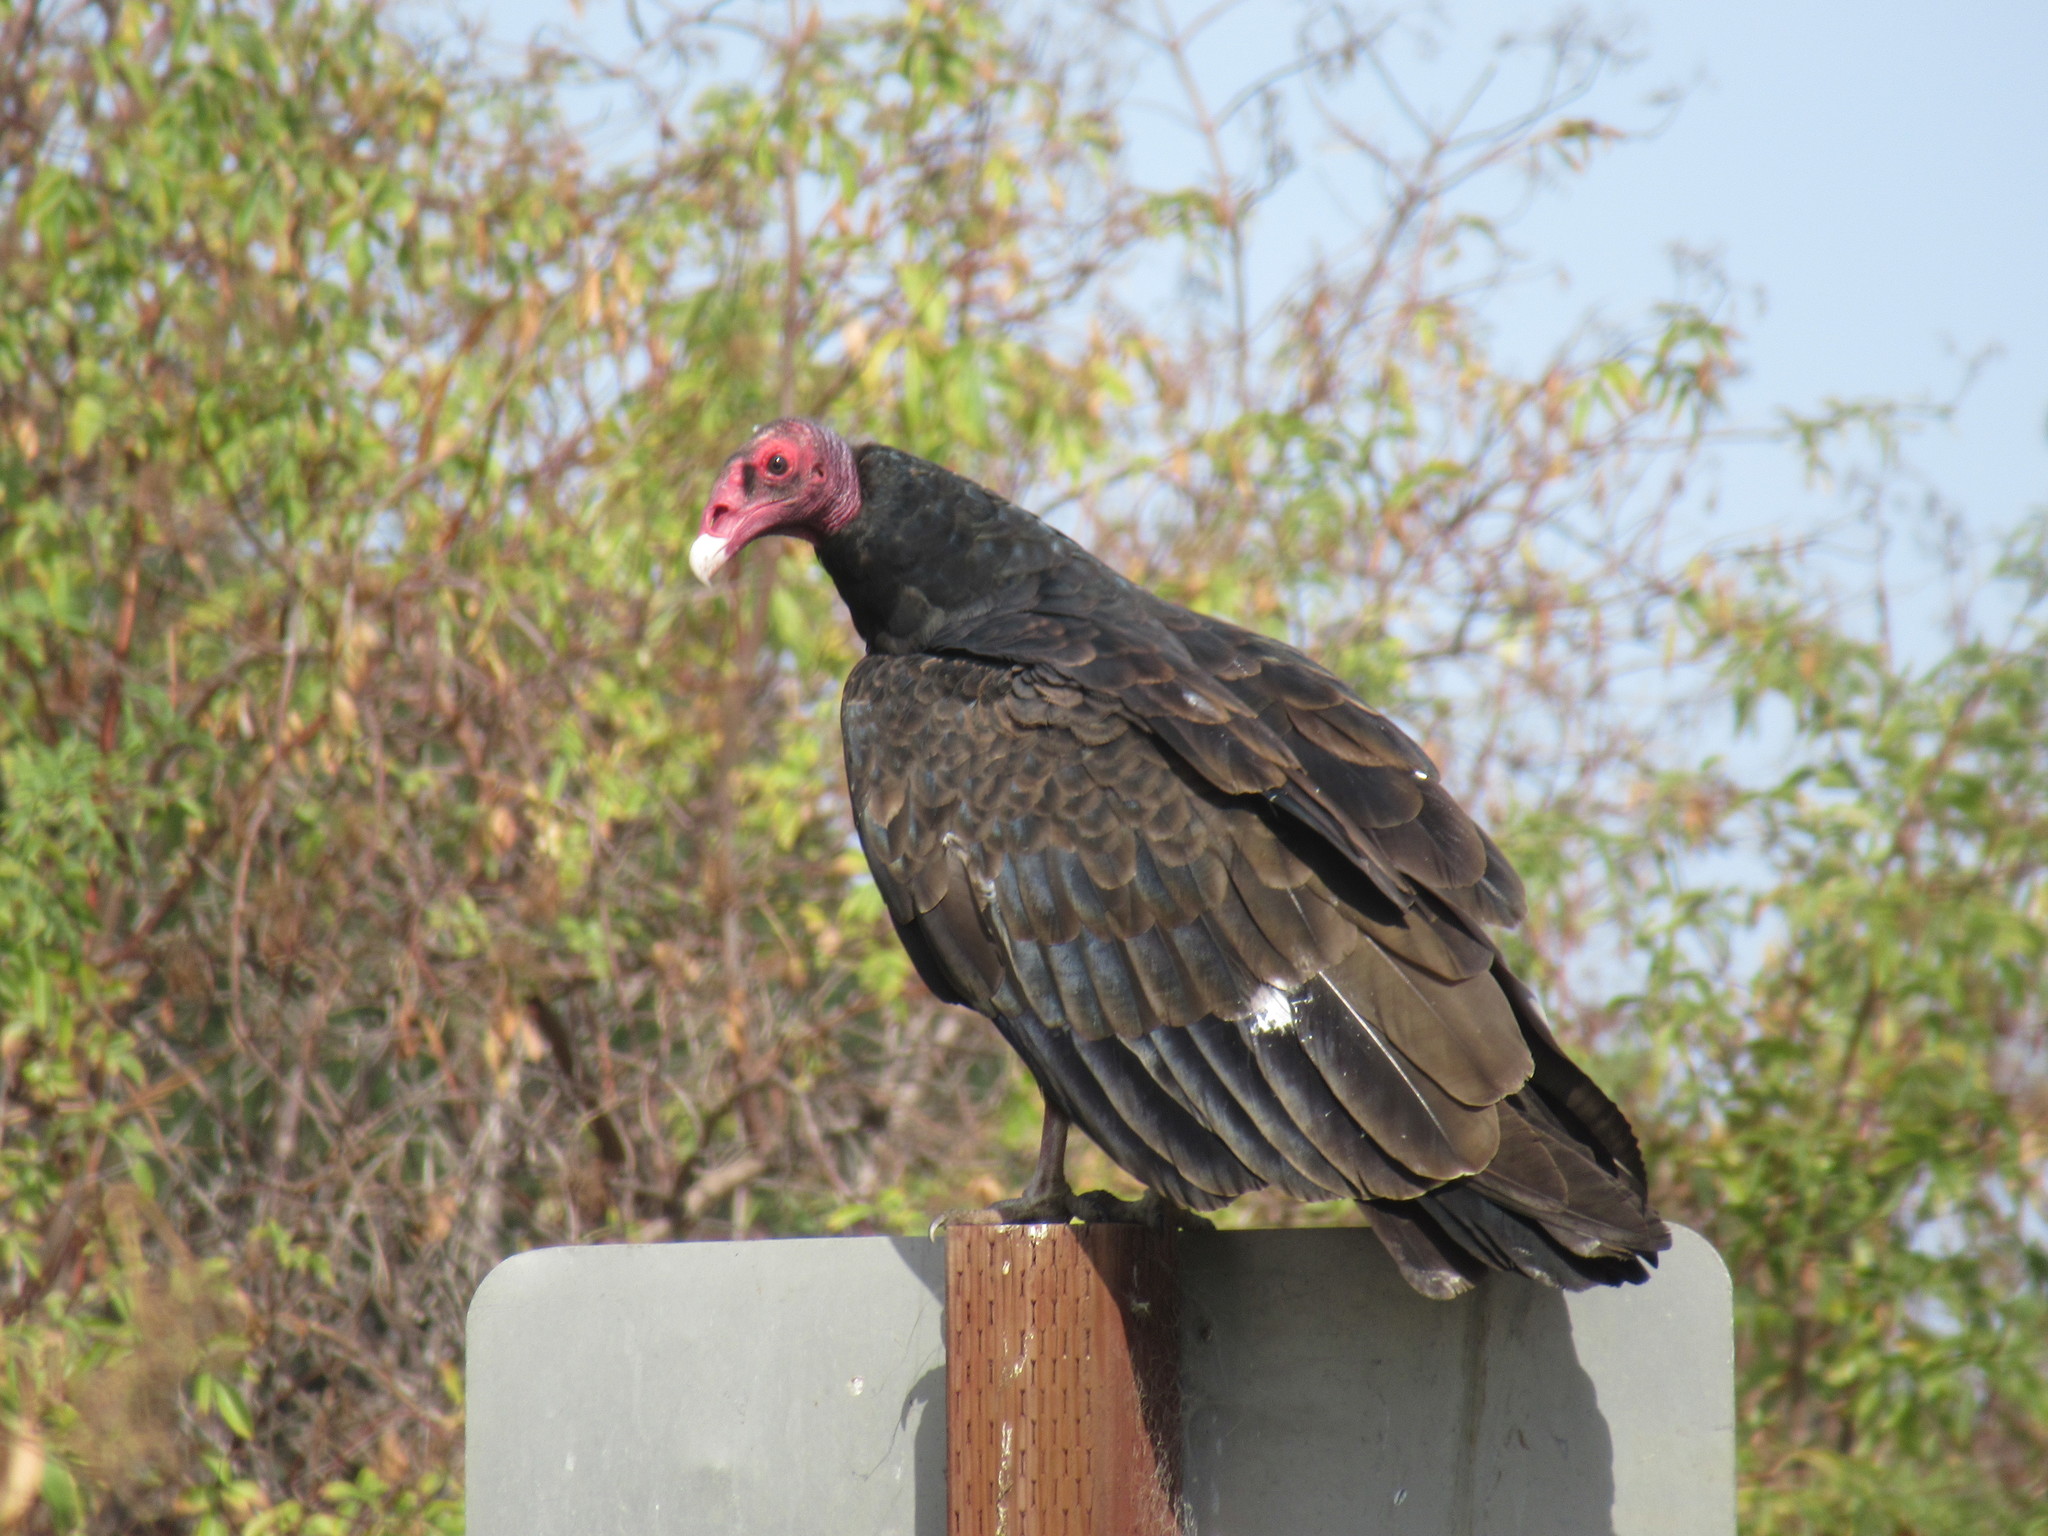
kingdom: Animalia
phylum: Chordata
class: Aves
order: Accipitriformes
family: Cathartidae
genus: Cathartes
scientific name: Cathartes aura
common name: Turkey vulture
